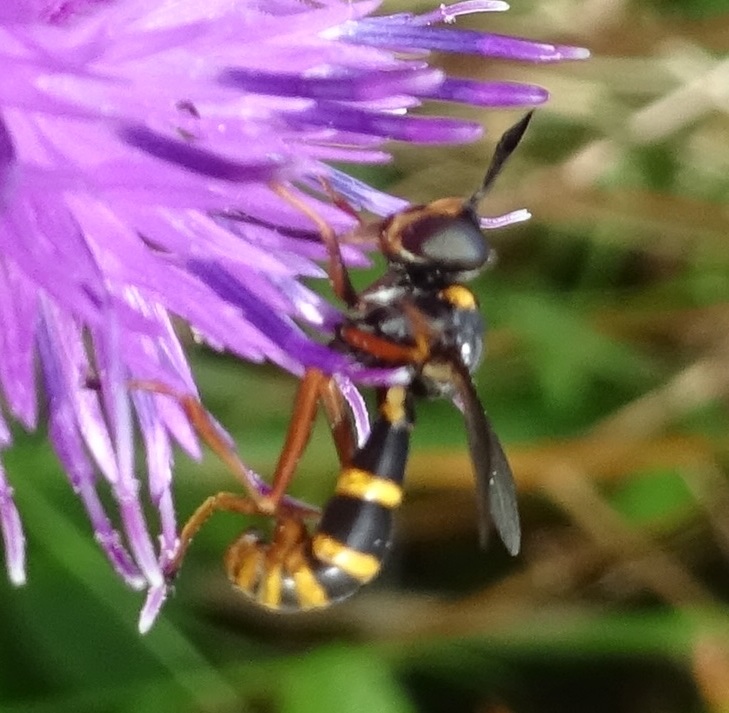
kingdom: Animalia
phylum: Arthropoda
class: Insecta
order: Diptera
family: Conopidae
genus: Conops
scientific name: Conops quadrifasciatus
